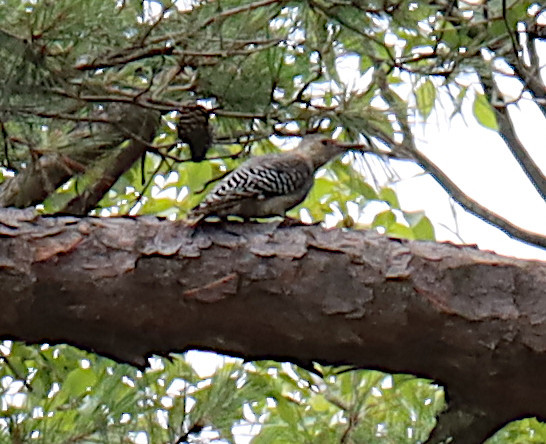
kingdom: Animalia
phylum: Chordata
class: Aves
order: Piciformes
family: Picidae
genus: Melanerpes
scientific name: Melanerpes carolinus
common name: Red-bellied woodpecker
